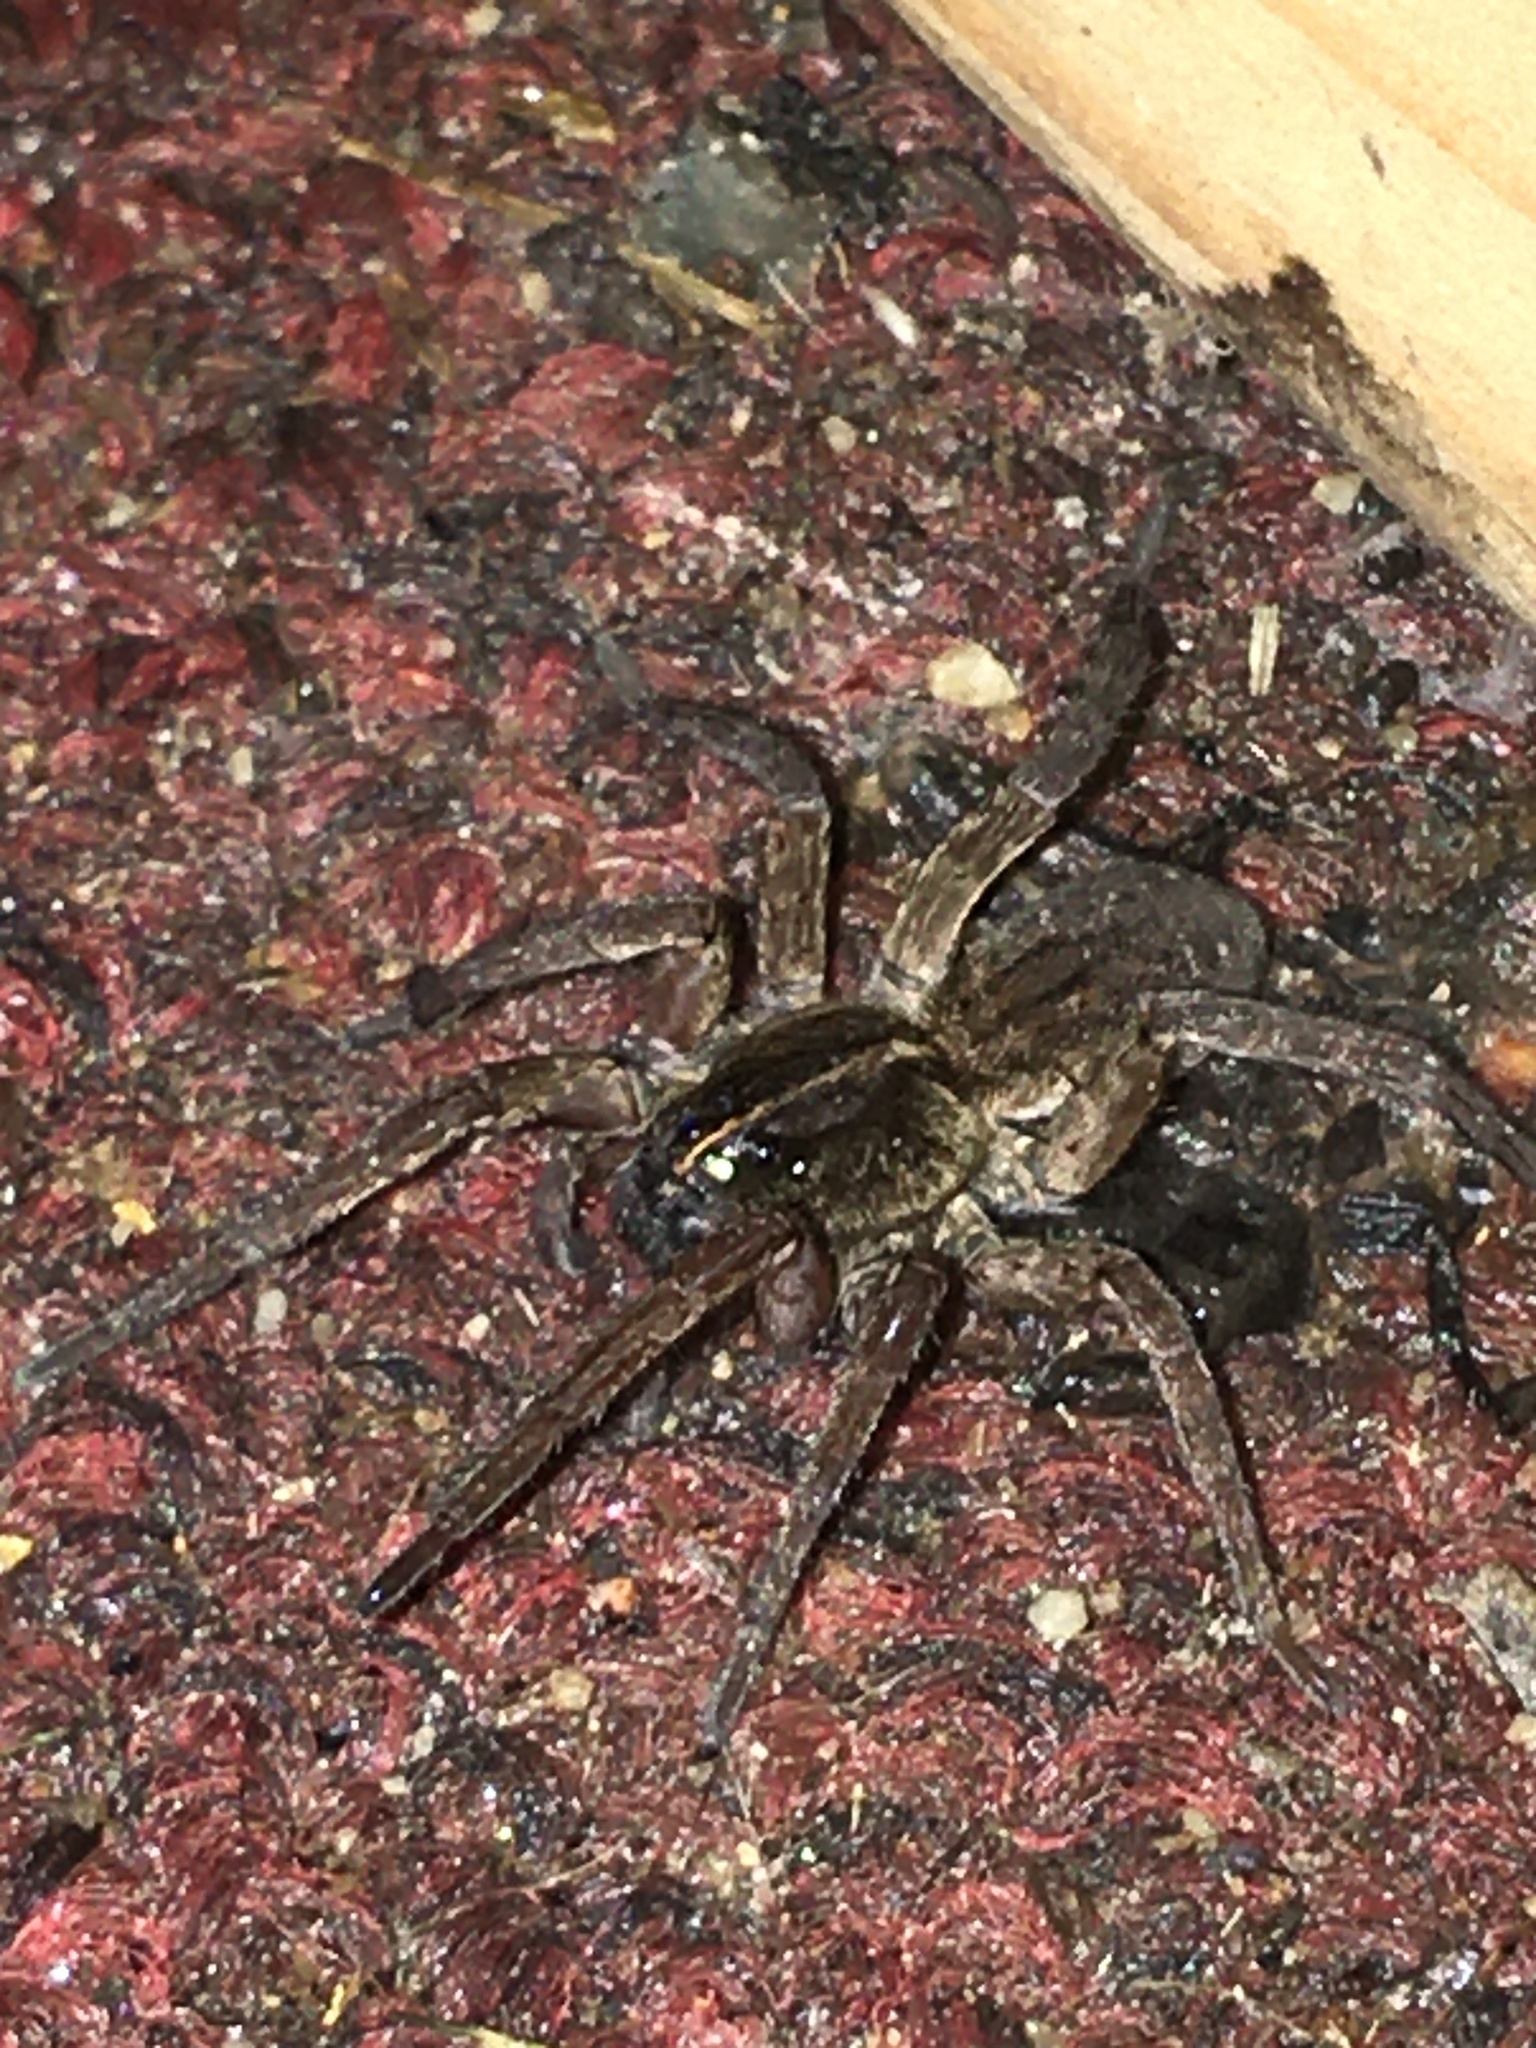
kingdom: Animalia
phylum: Arthropoda
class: Arachnida
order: Araneae
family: Lycosidae
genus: Tigrosa
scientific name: Tigrosa helluo
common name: Wetland giant wolf spider
